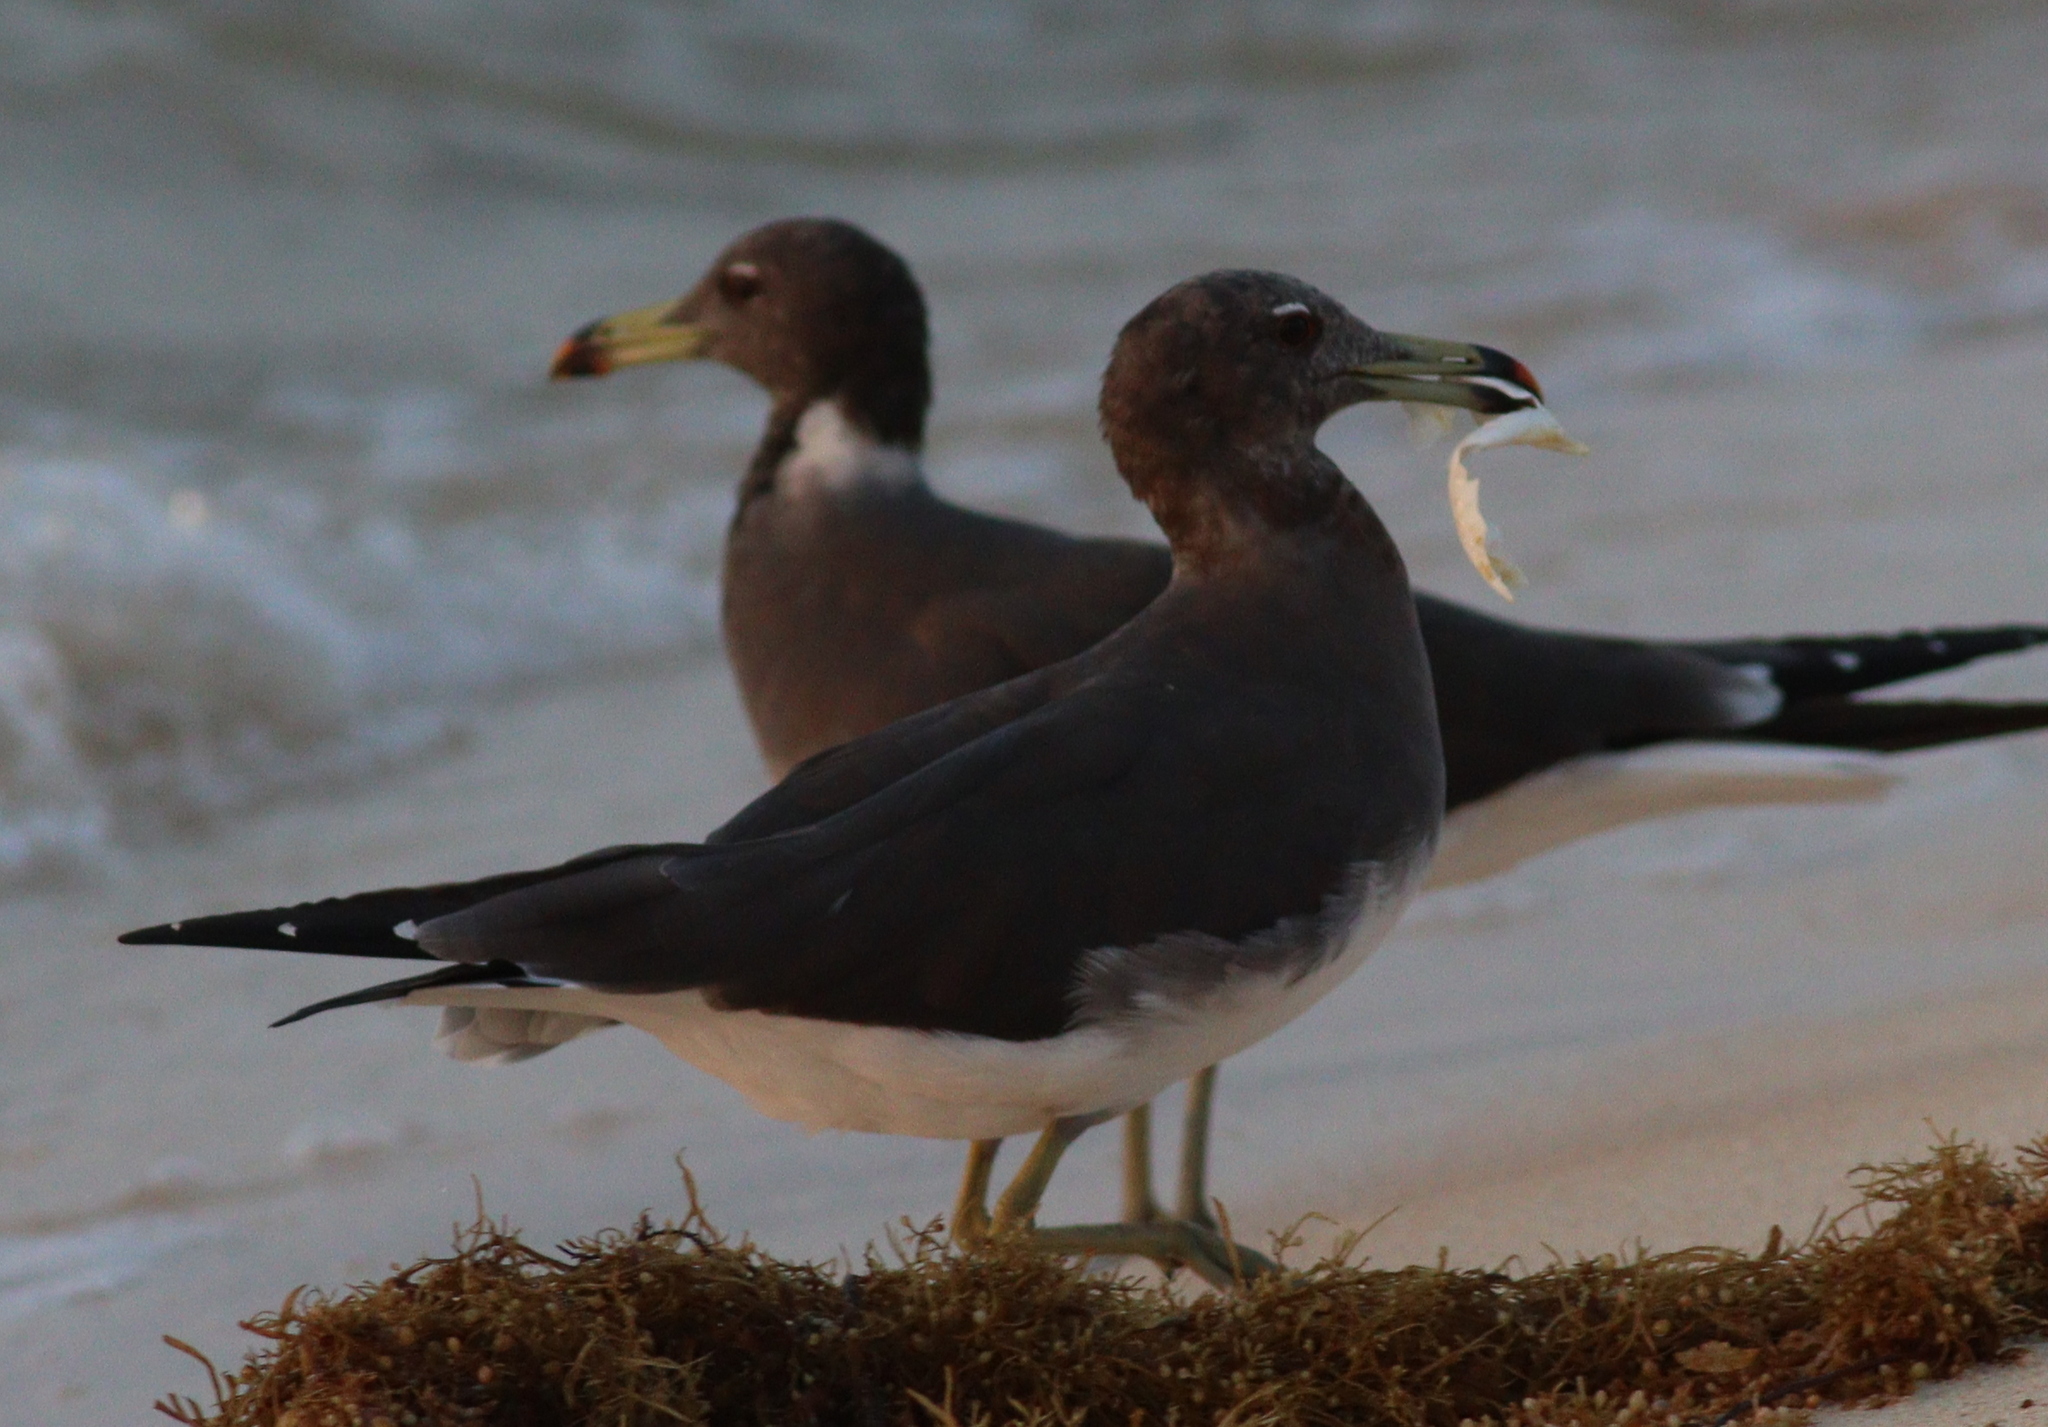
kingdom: Animalia
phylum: Chordata
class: Aves
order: Charadriiformes
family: Laridae
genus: Ichthyaetus
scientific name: Ichthyaetus hemprichii
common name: Sooty gull
